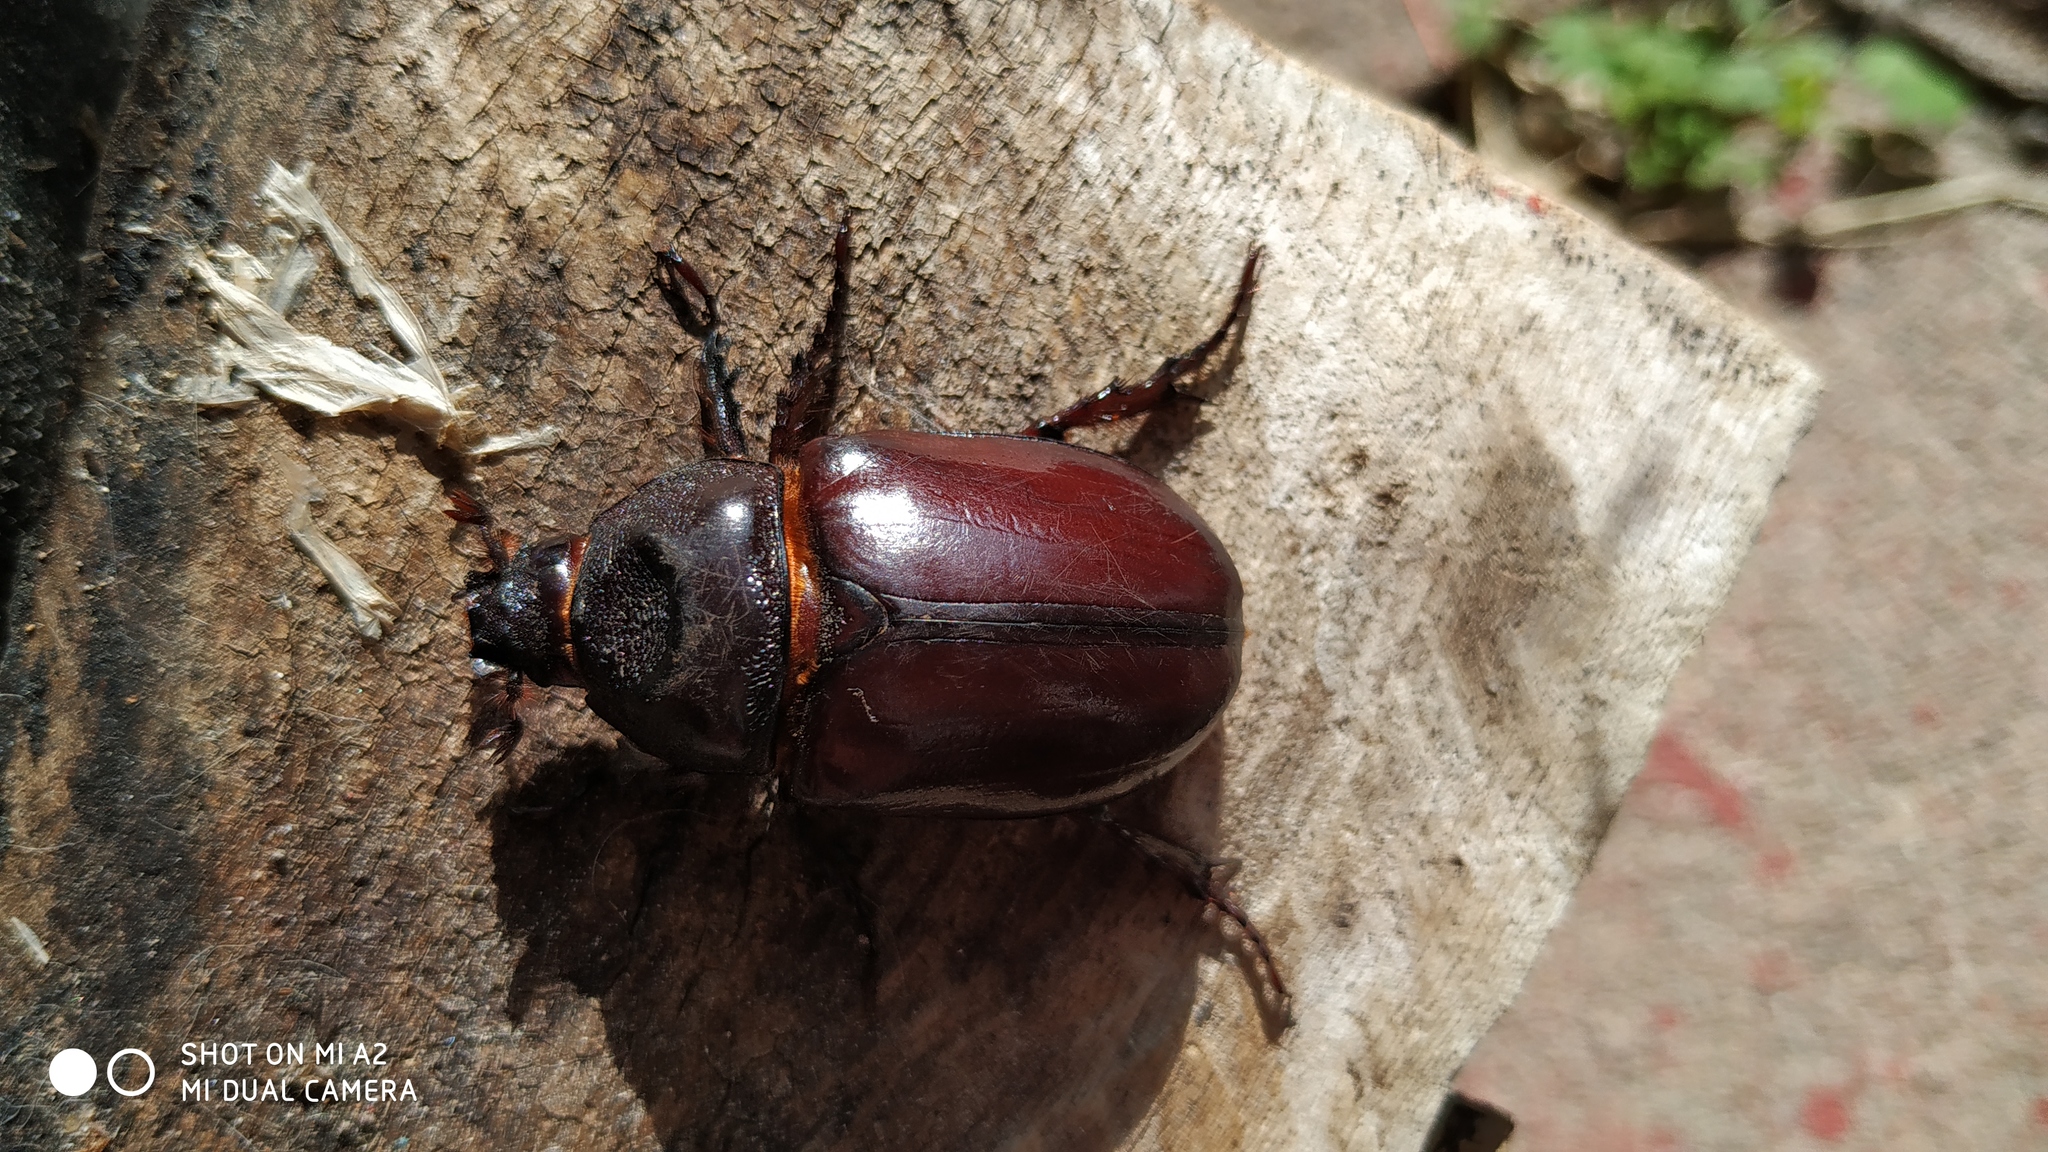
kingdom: Animalia
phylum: Arthropoda
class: Insecta
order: Coleoptera
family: Scarabaeidae
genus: Strategus
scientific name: Strategus aloeus
